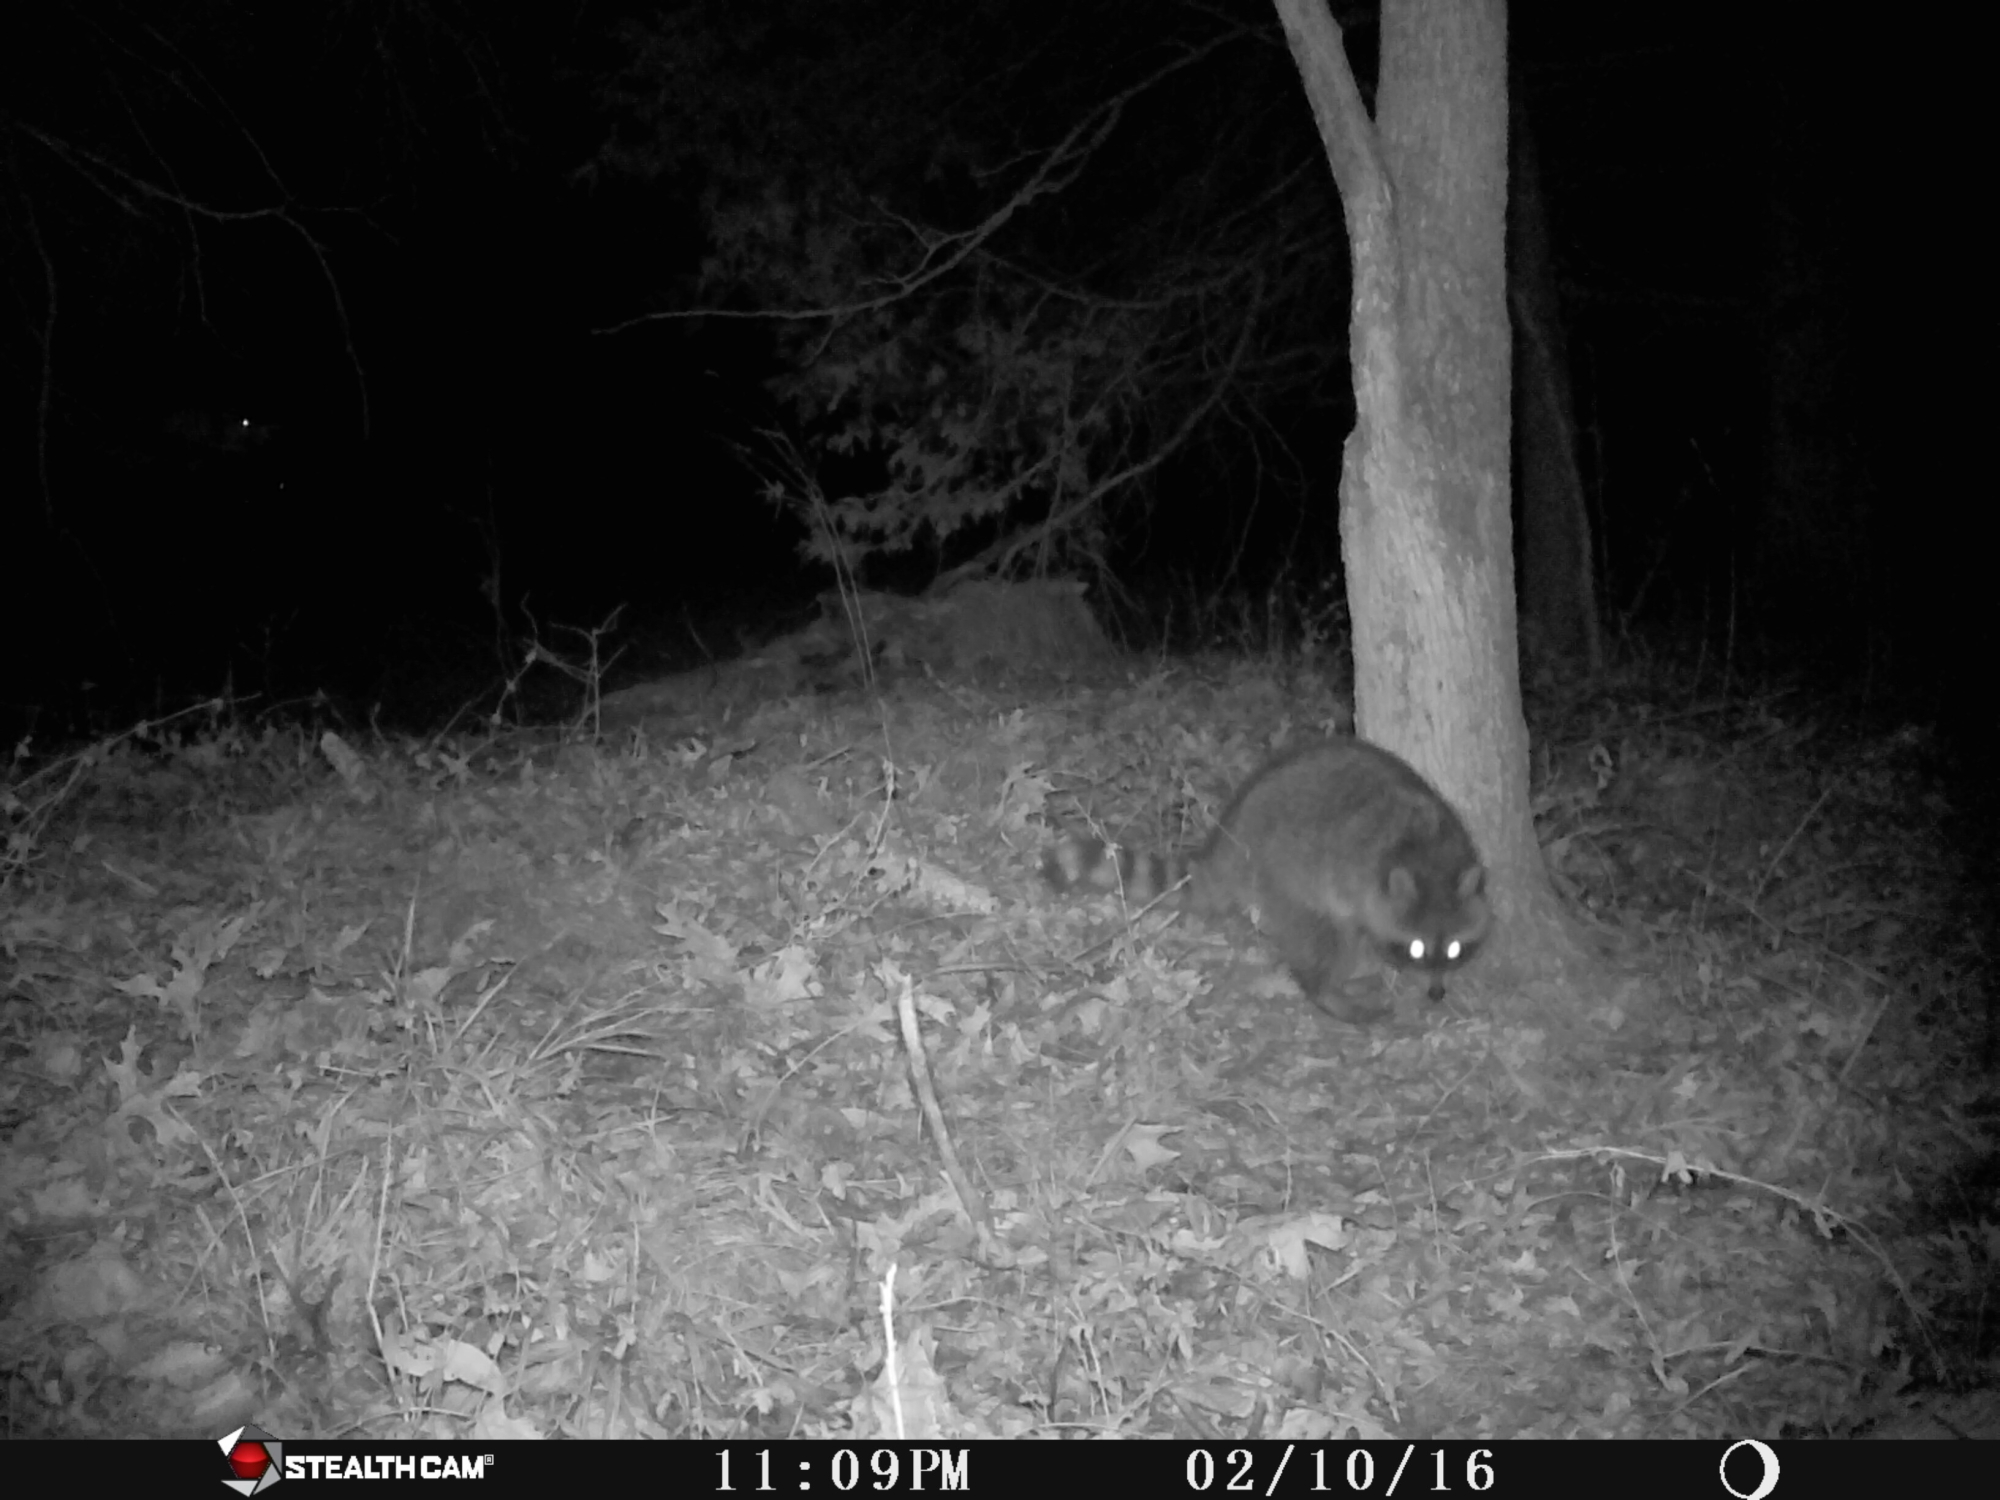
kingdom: Animalia
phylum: Chordata
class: Mammalia
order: Carnivora
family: Procyonidae
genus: Procyon
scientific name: Procyon lotor
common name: Raccoon
